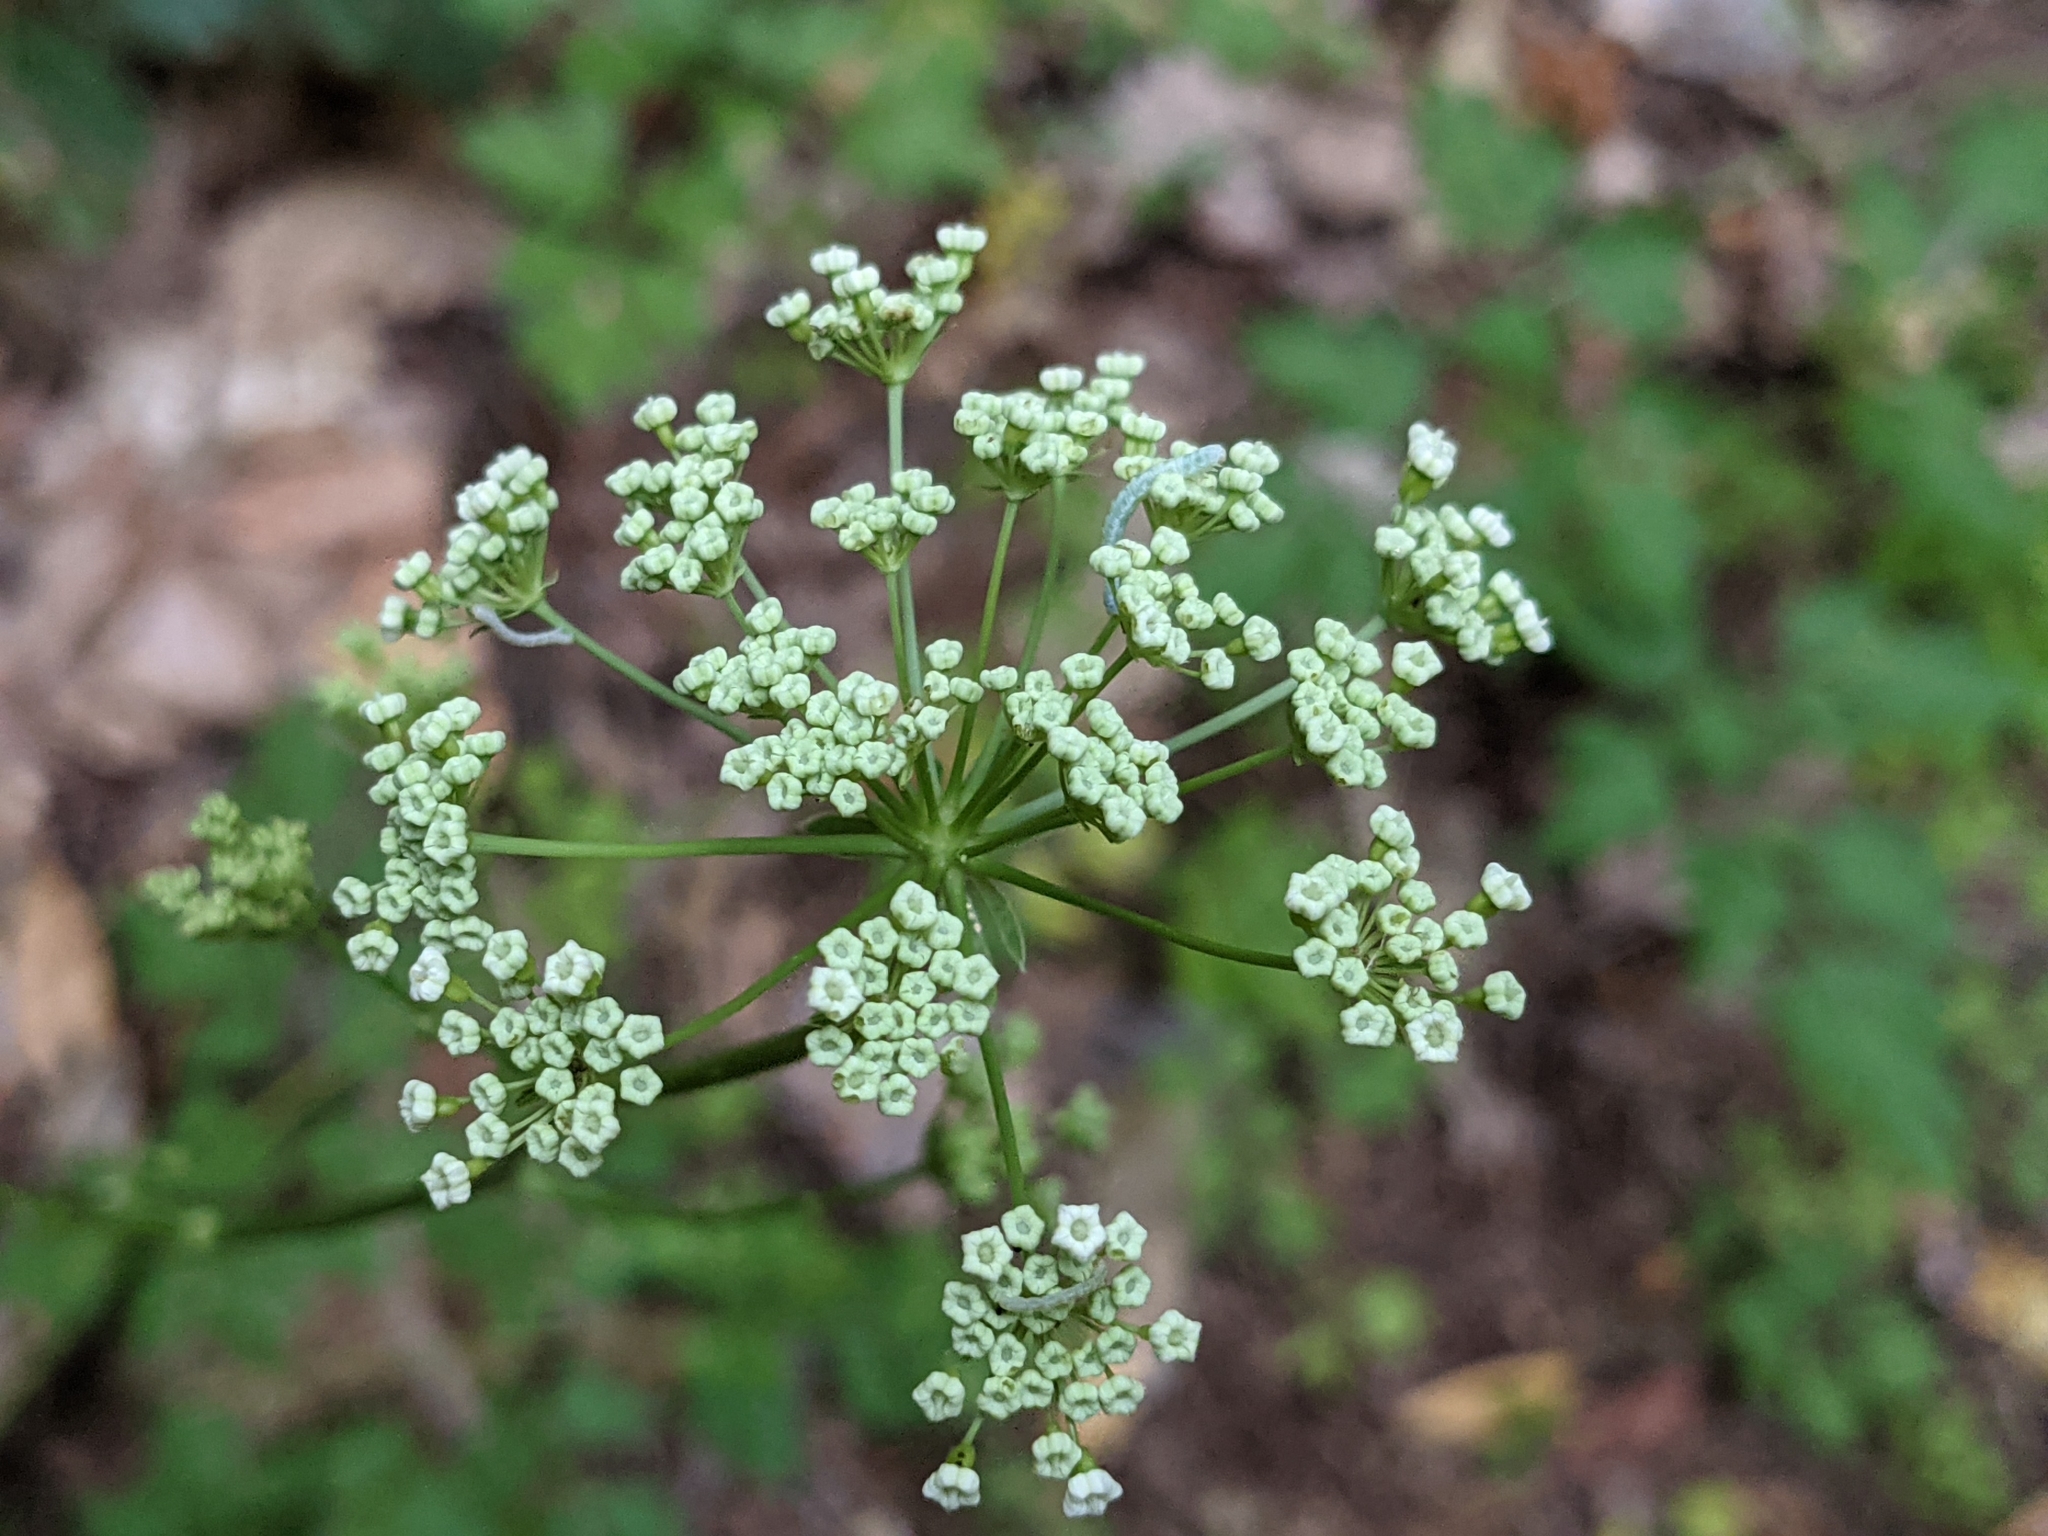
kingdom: Plantae
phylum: Tracheophyta
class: Magnoliopsida
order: Apiales
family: Apiaceae
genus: Physospermum
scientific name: Physospermum cornubiense
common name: Bladderseed
